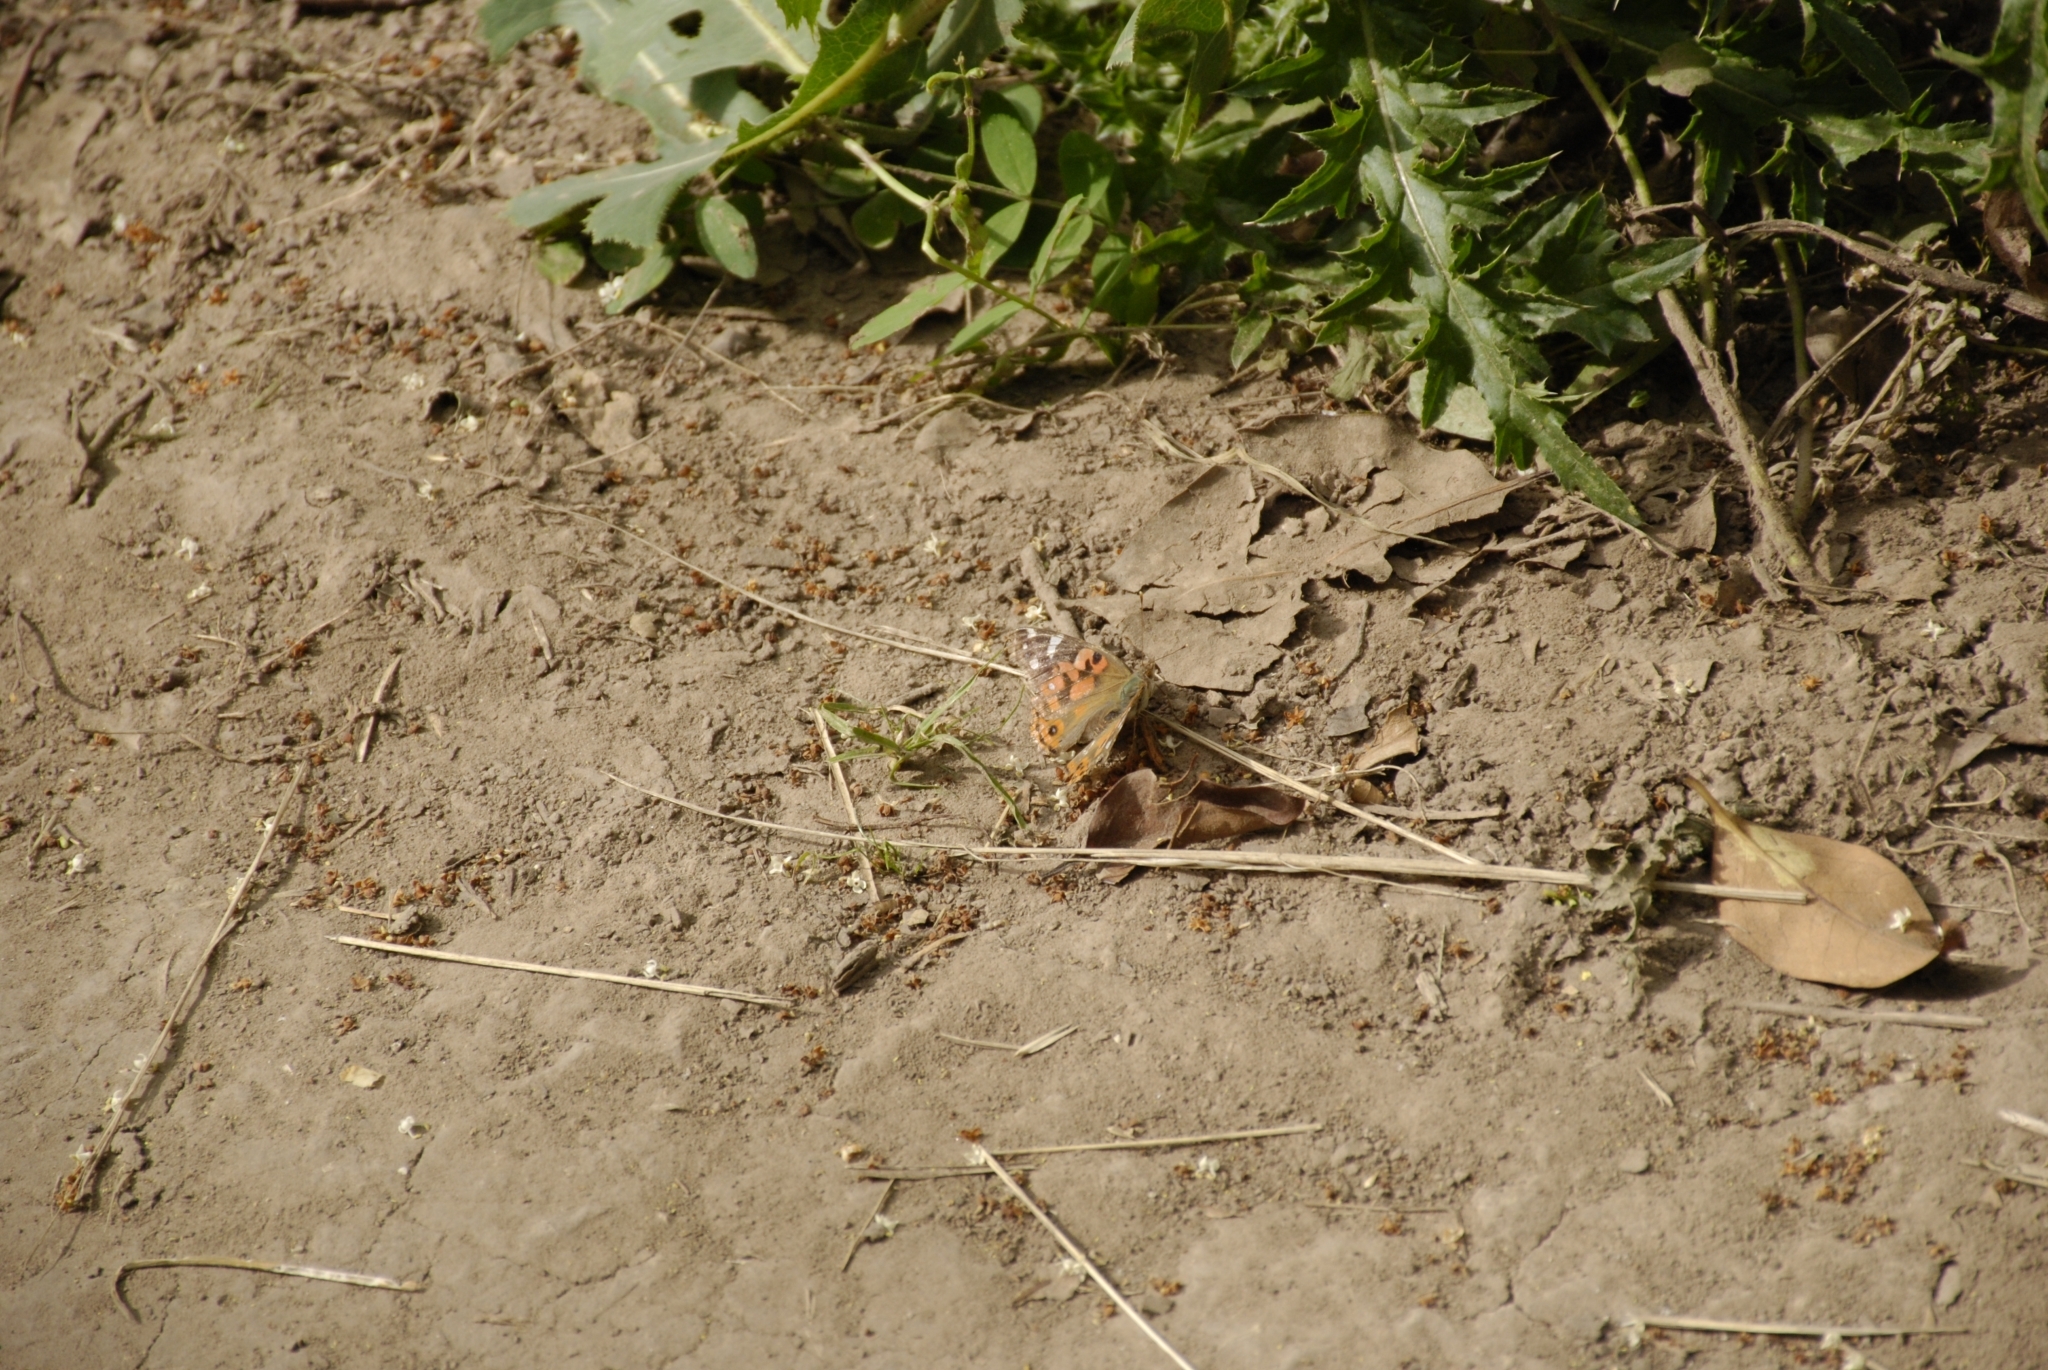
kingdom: Animalia
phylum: Arthropoda
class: Insecta
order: Lepidoptera
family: Nymphalidae
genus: Vanessa
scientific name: Vanessa braziliensis
